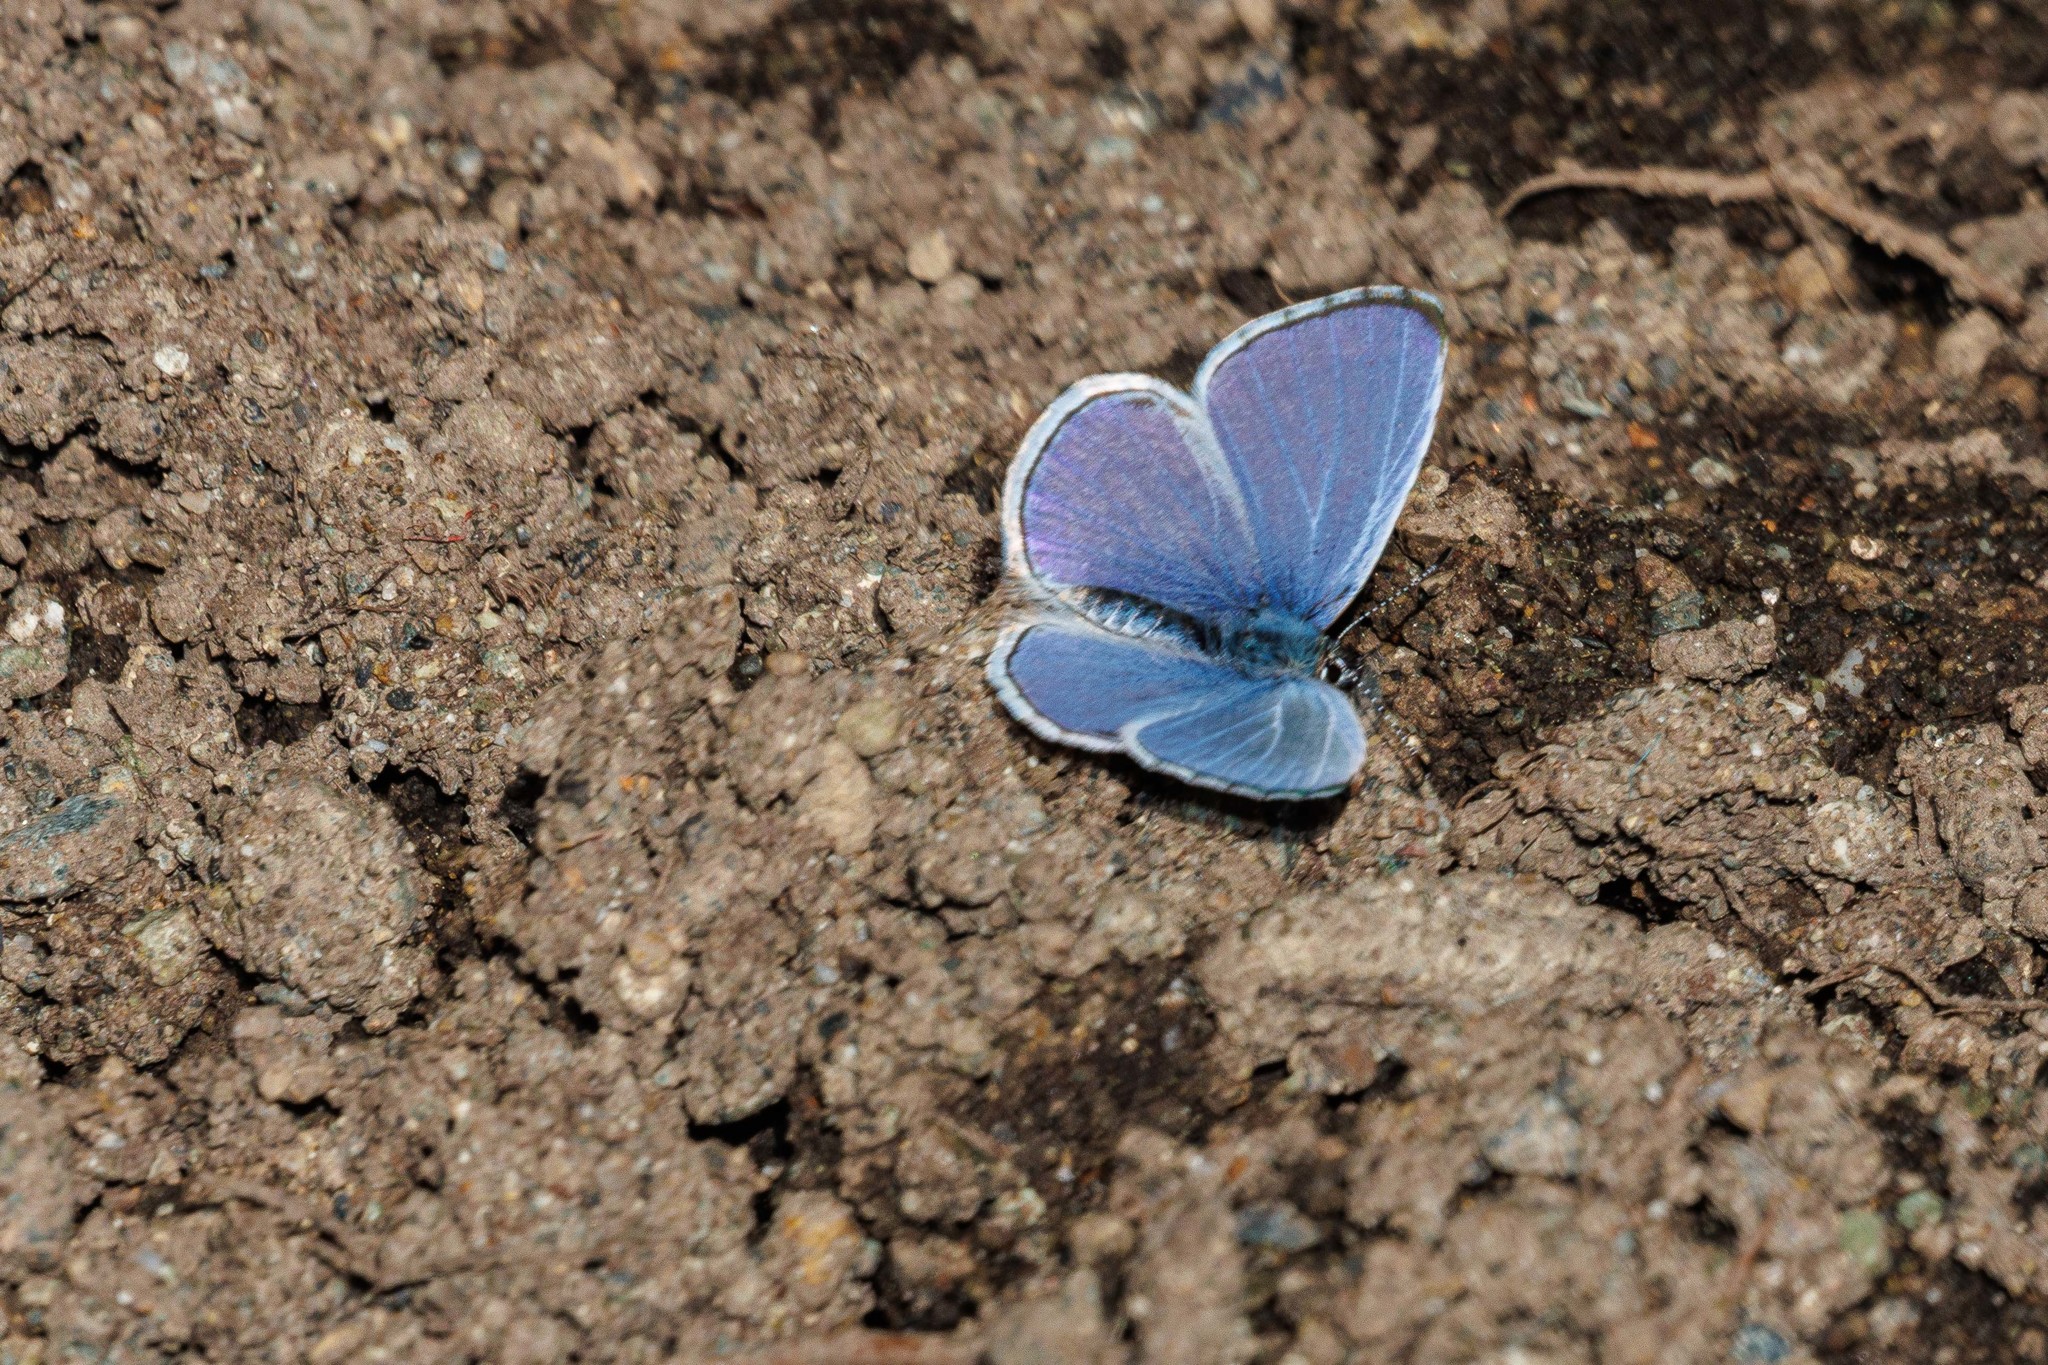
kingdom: Animalia
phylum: Arthropoda
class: Insecta
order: Lepidoptera
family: Lycaenidae
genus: Celastrina
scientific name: Celastrina ladon
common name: Spring azure
